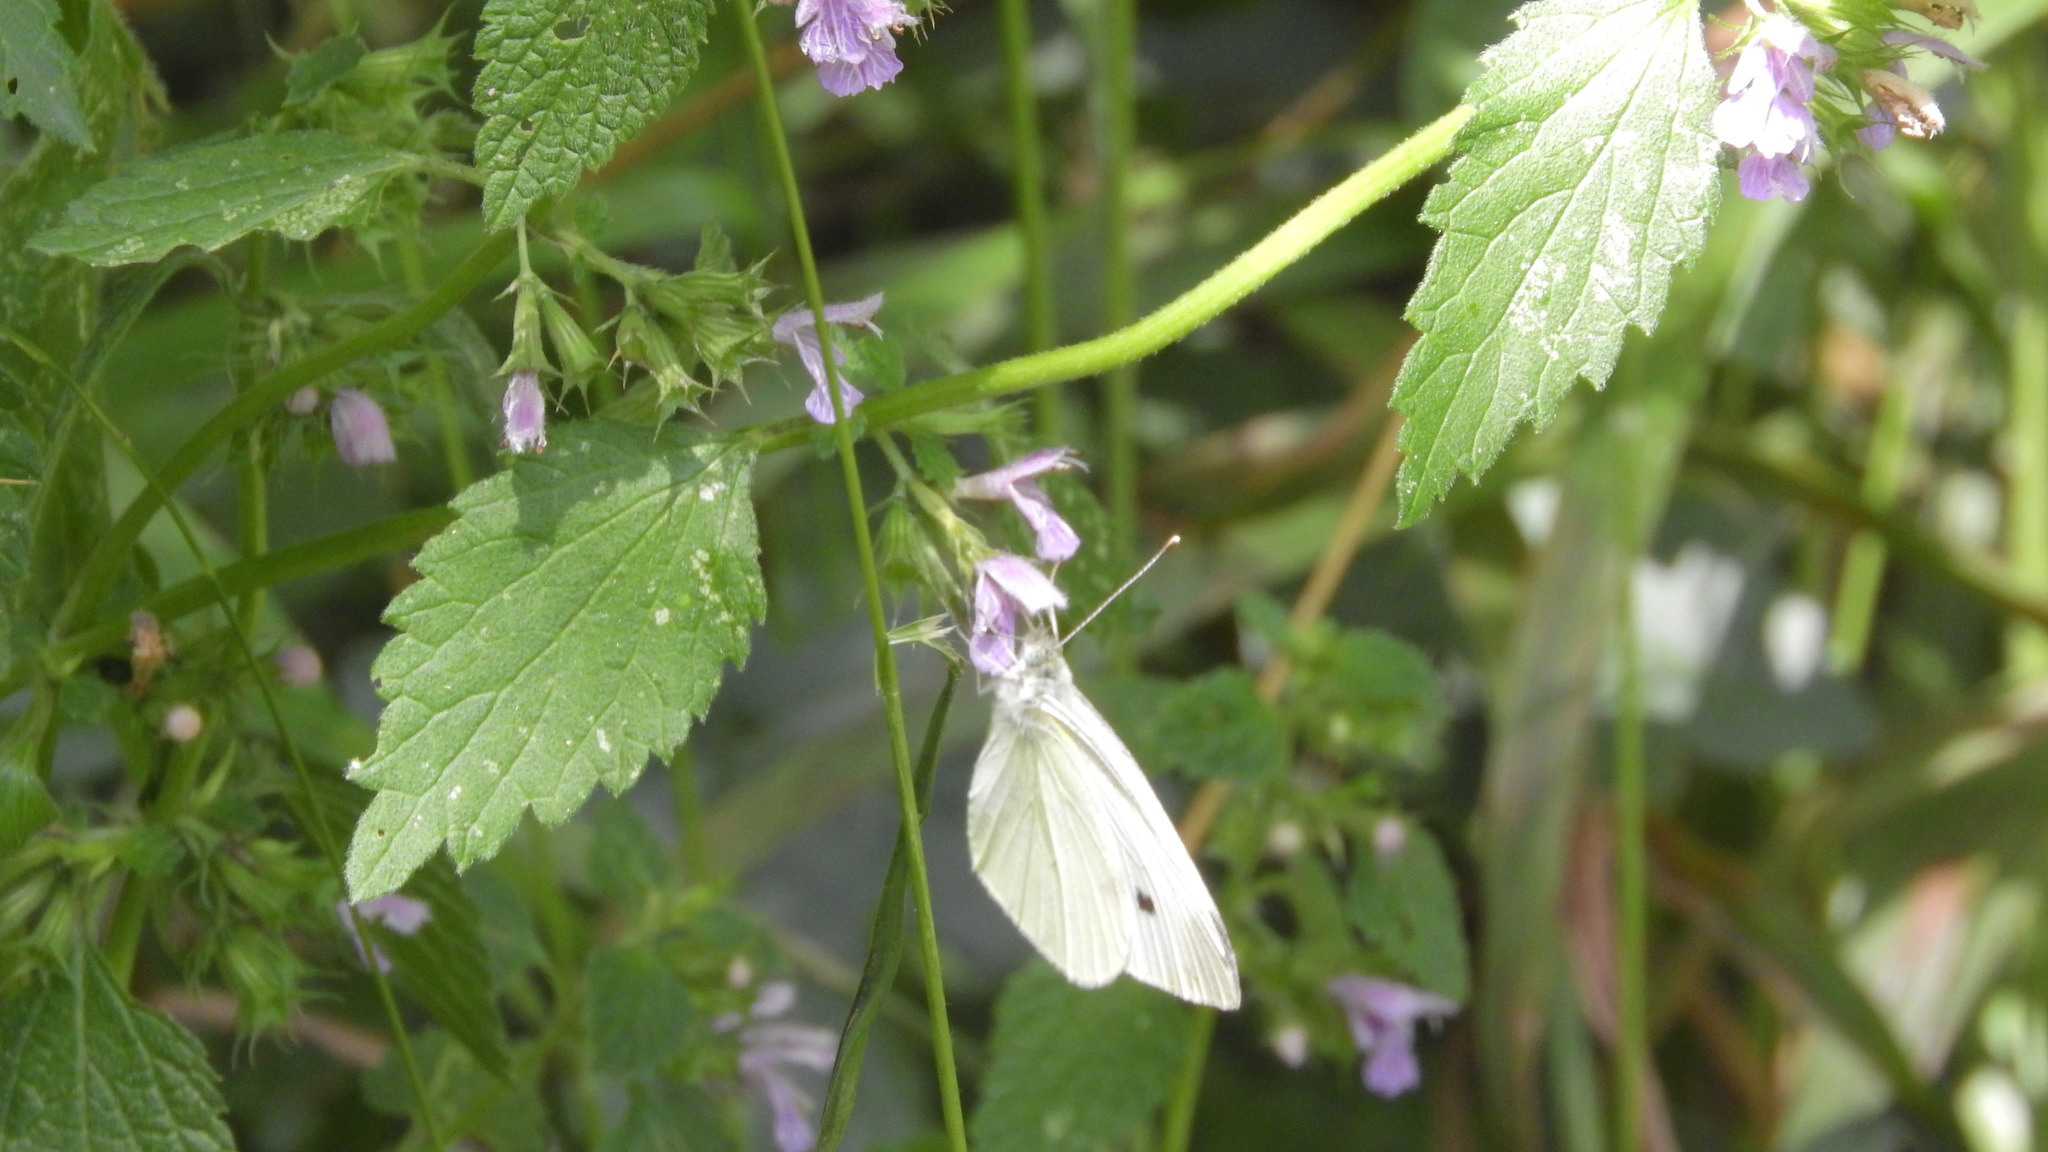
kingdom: Animalia
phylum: Arthropoda
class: Insecta
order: Lepidoptera
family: Pieridae
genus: Pieris
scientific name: Pieris rapae
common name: Small white
